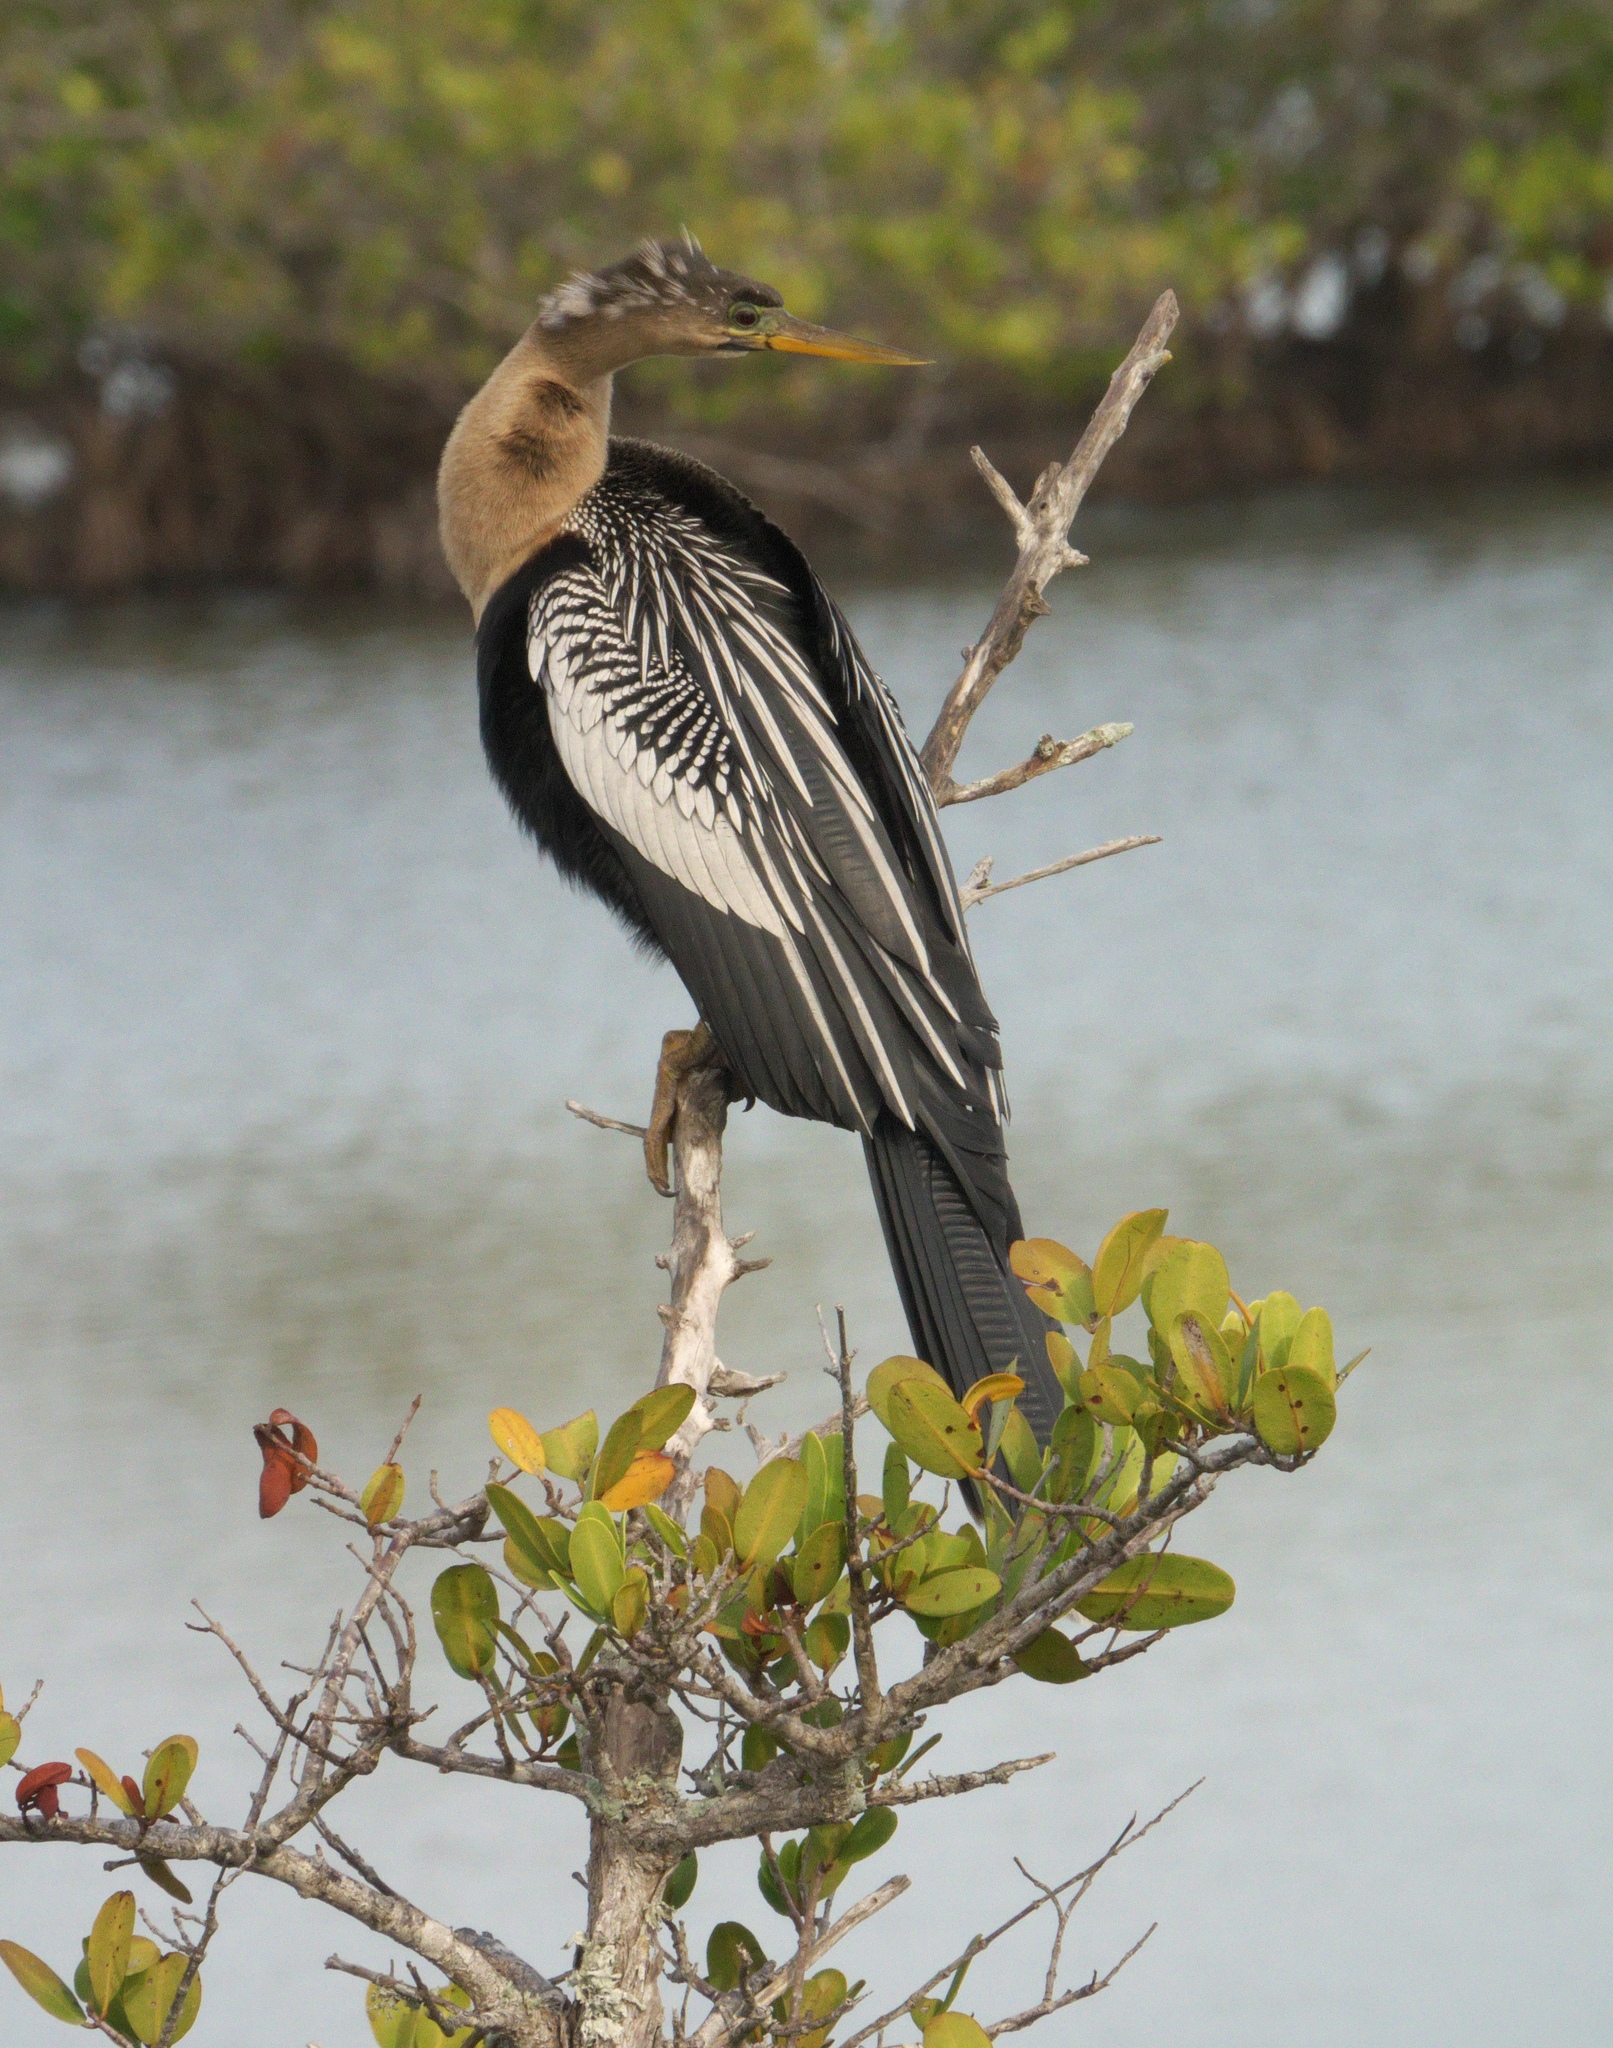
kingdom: Animalia
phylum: Chordata
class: Aves
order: Suliformes
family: Anhingidae
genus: Anhinga
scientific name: Anhinga anhinga
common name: Anhinga
